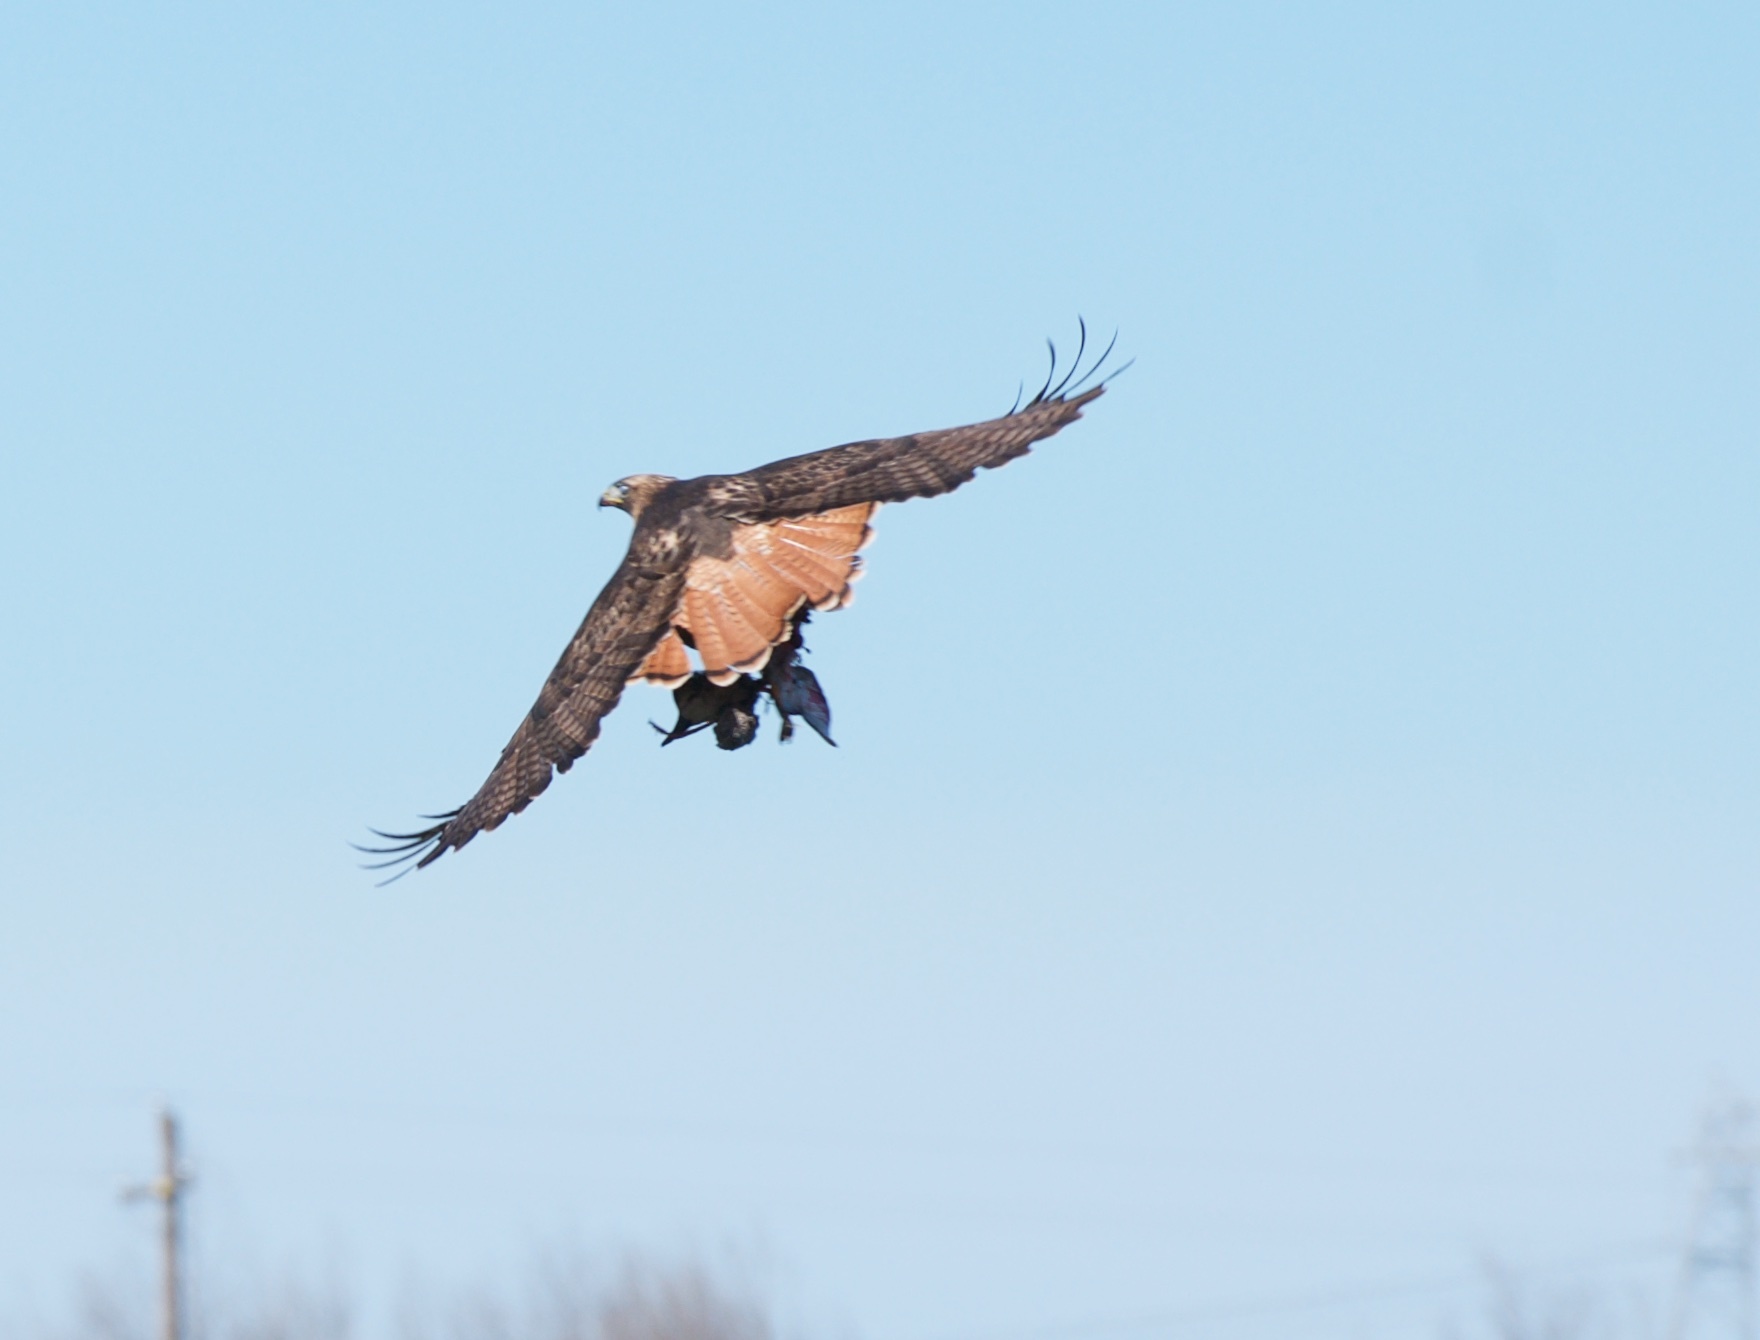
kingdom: Animalia
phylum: Chordata
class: Aves
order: Accipitriformes
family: Accipitridae
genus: Buteo
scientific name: Buteo jamaicensis
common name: Red-tailed hawk
